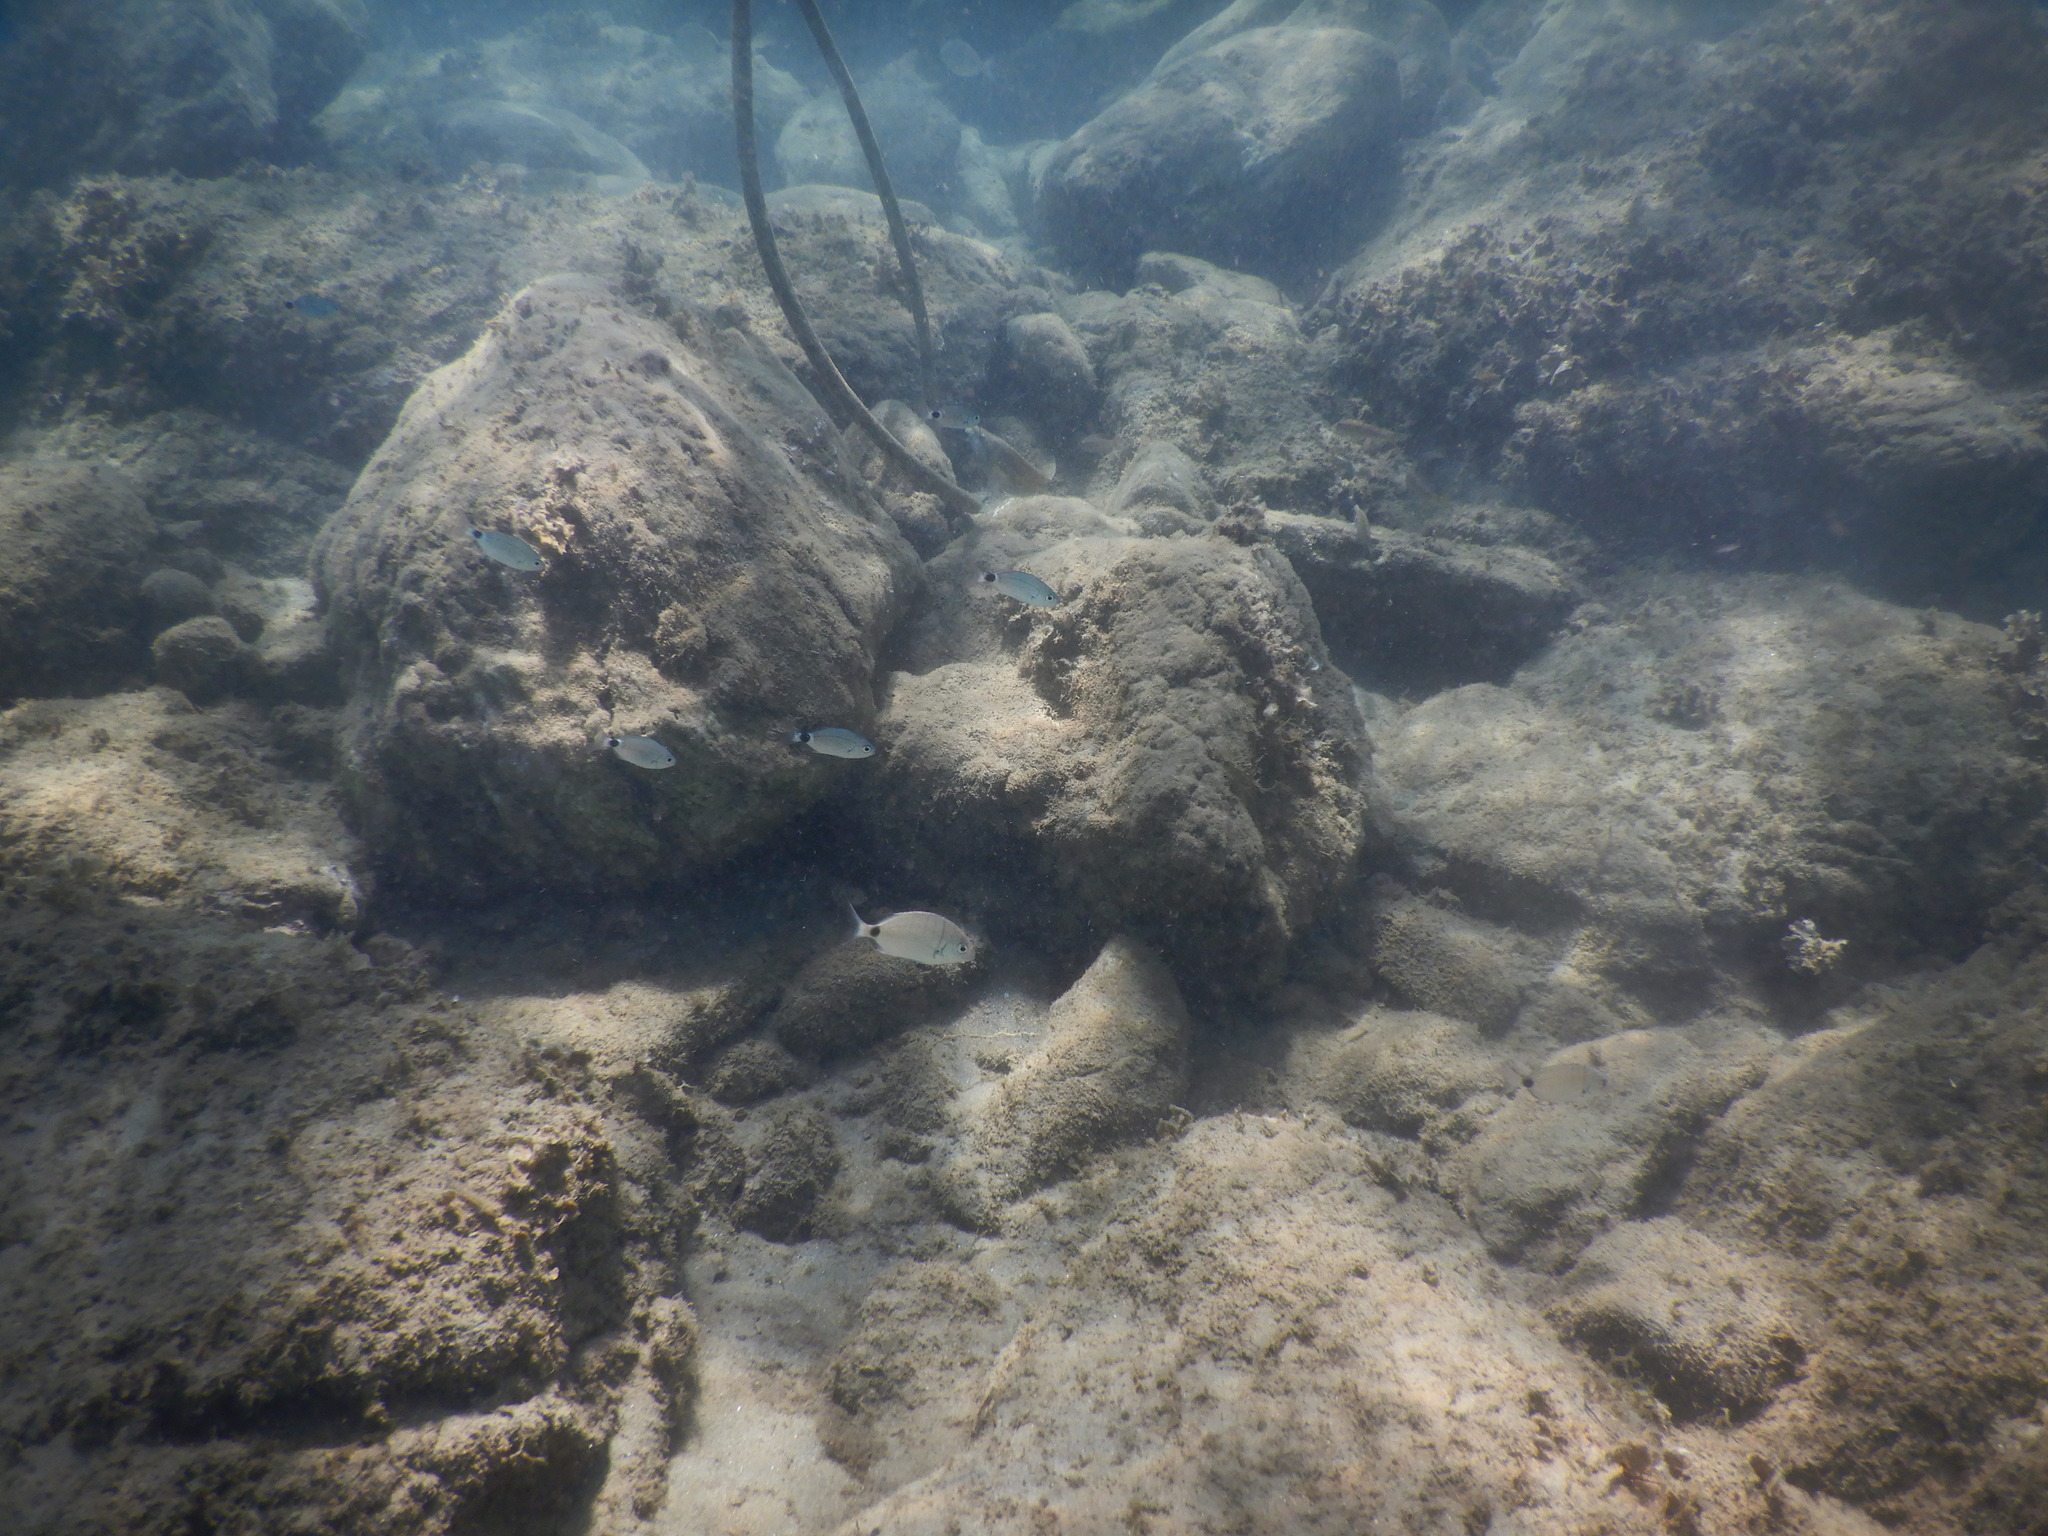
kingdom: Animalia
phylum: Chordata
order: Perciformes
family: Sparidae
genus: Oblada
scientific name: Oblada melanura
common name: Saddled seabream
